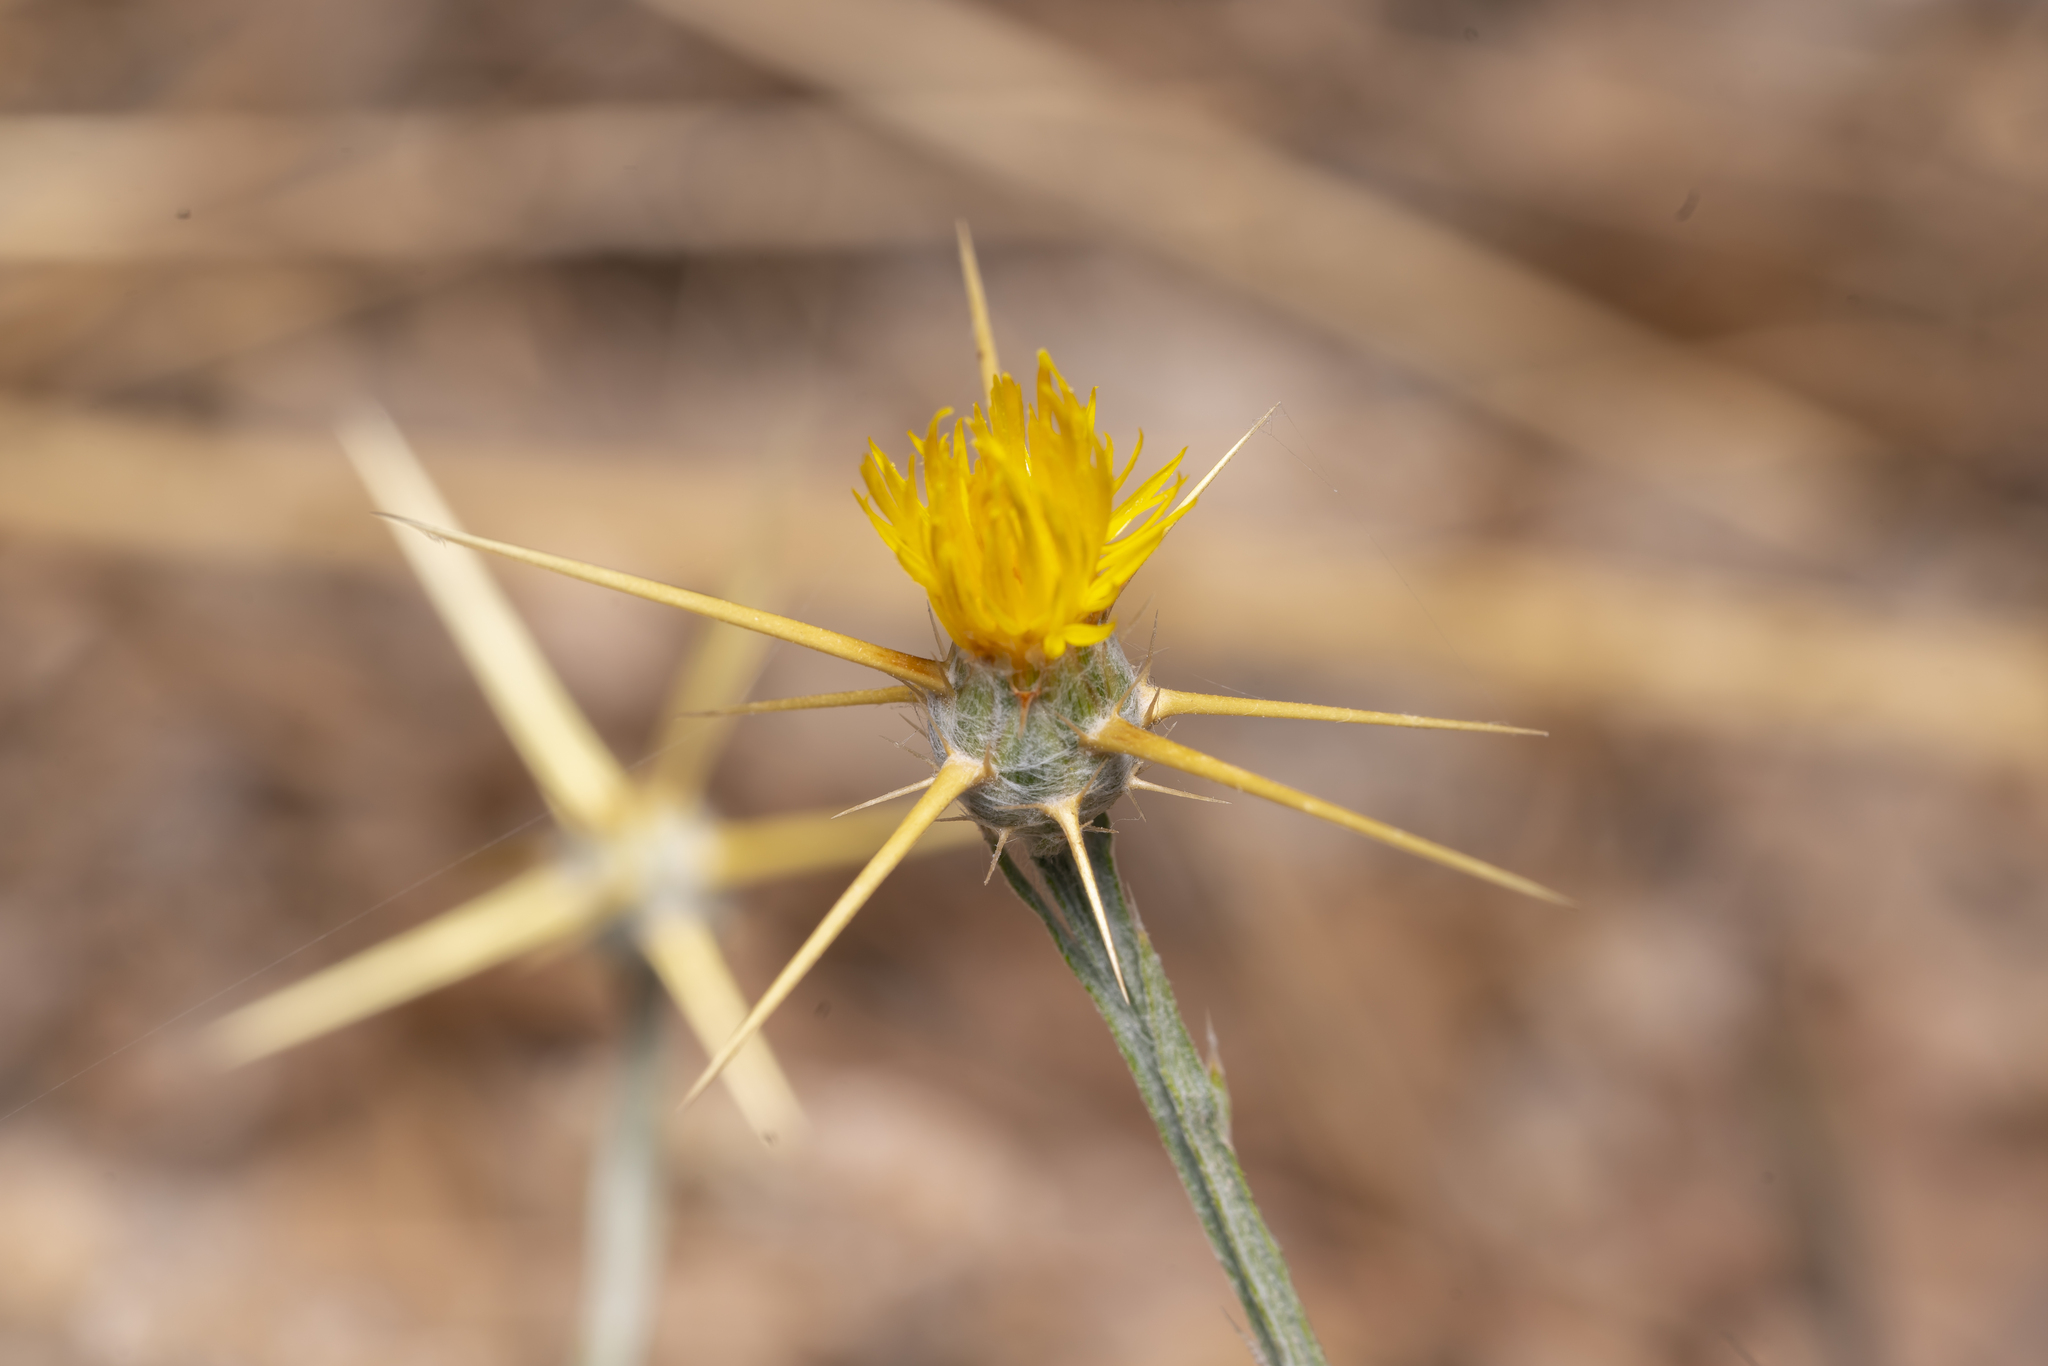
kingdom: Plantae
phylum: Tracheophyta
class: Magnoliopsida
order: Asterales
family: Asteraceae
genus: Centaurea
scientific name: Centaurea solstitialis
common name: Yellow star-thistle
